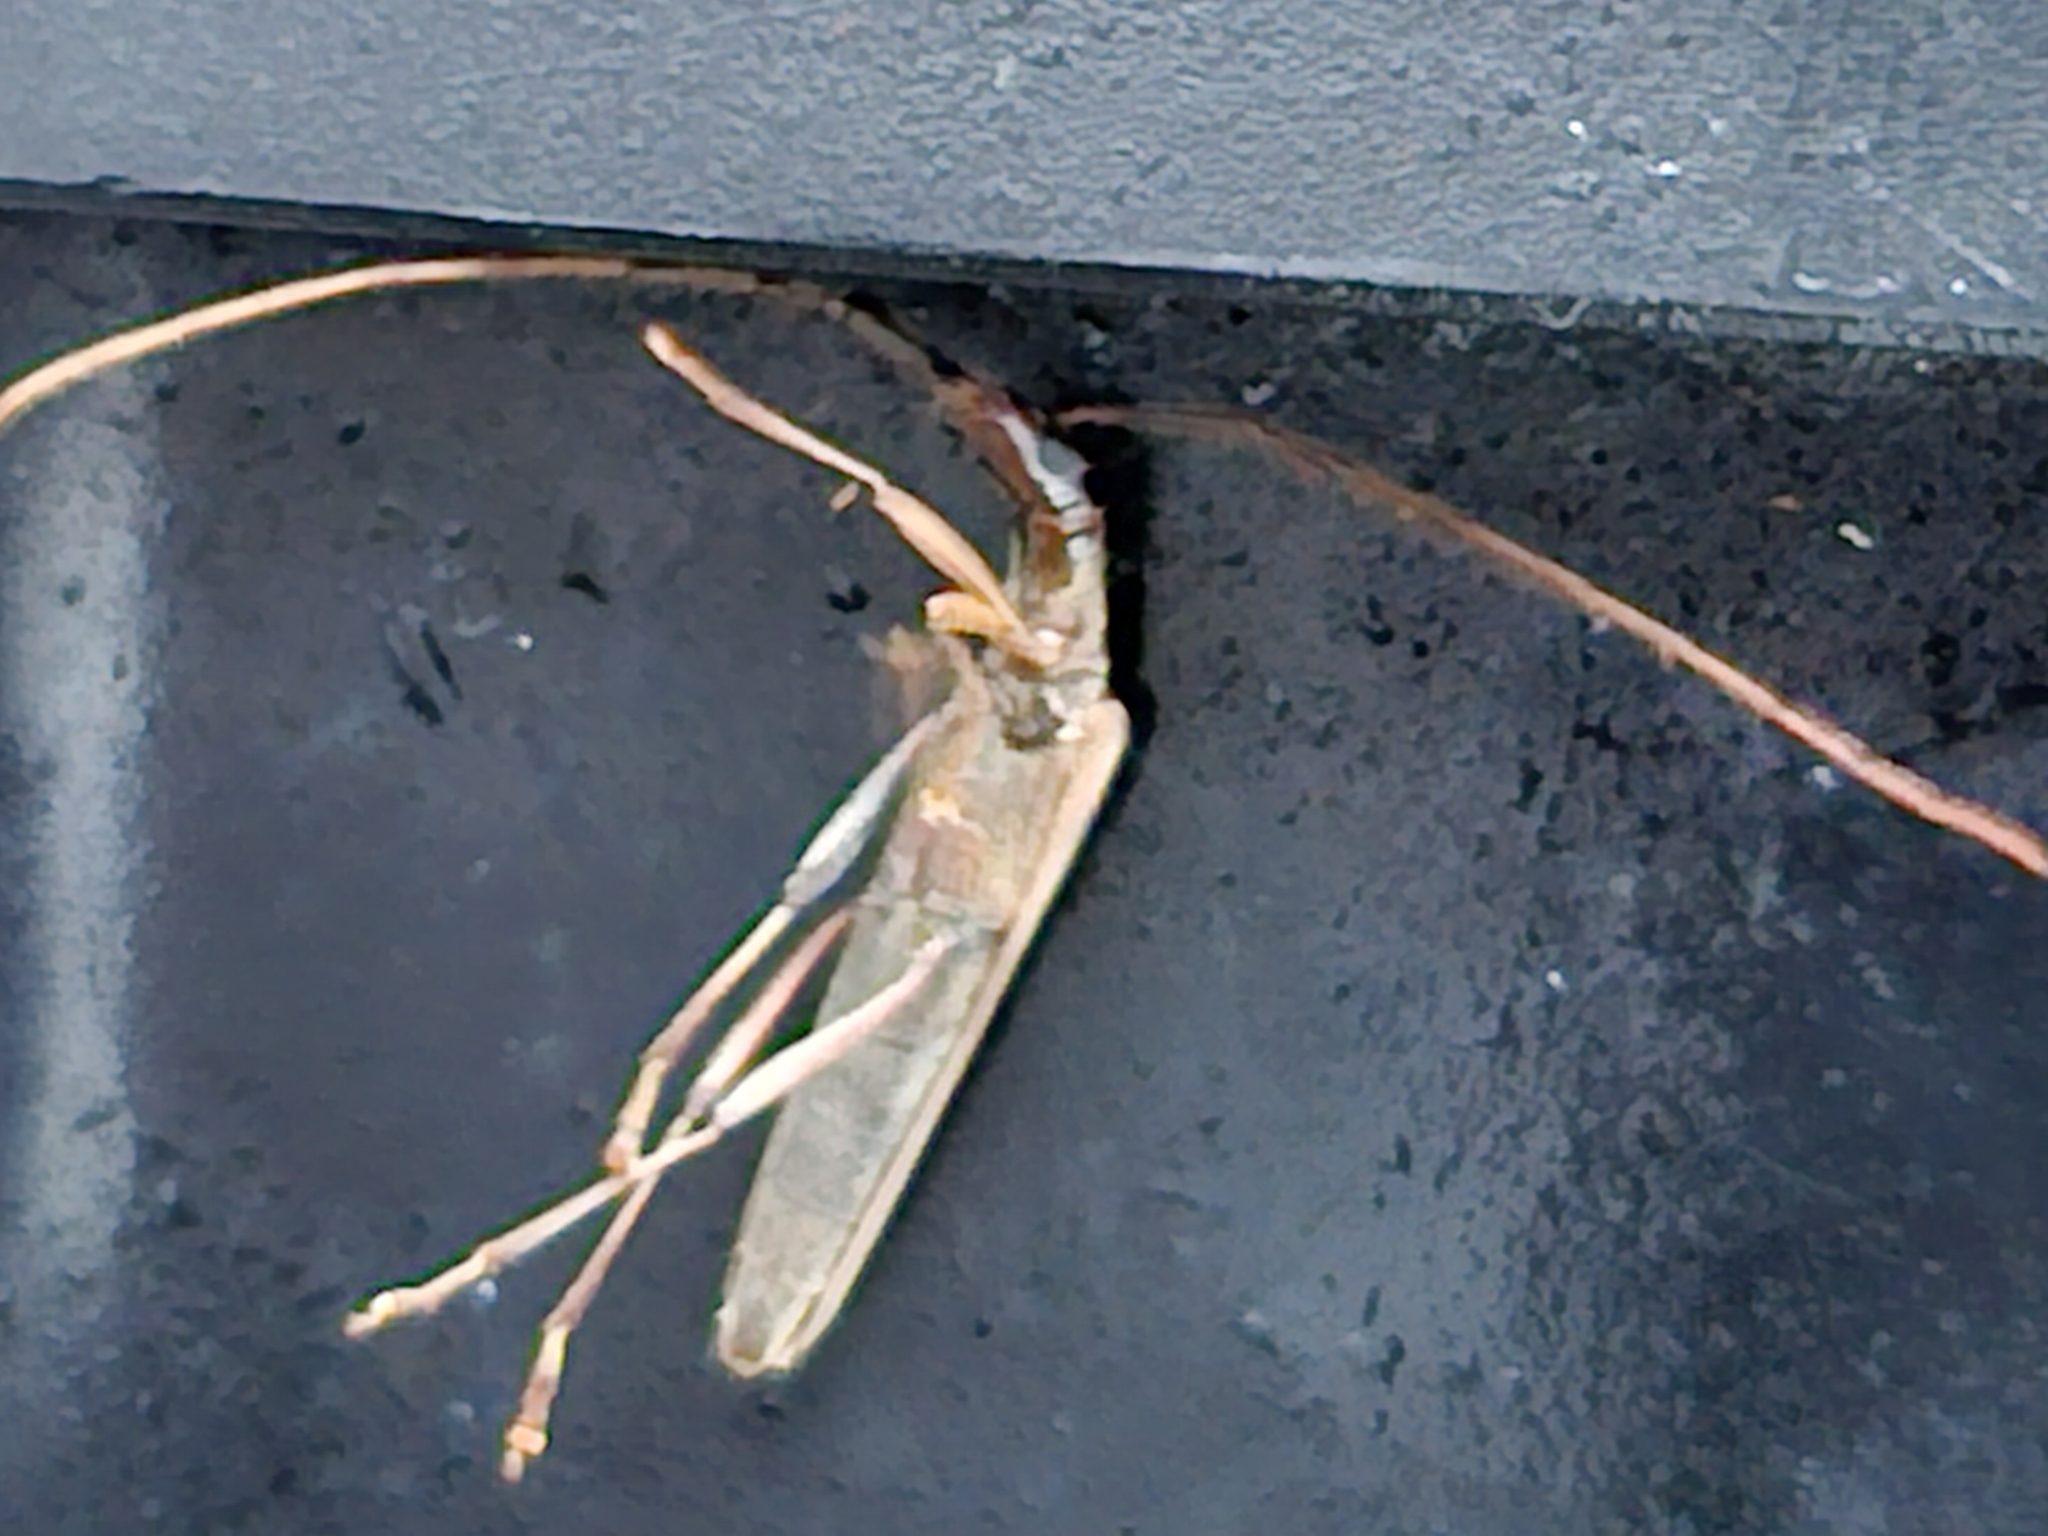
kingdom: Animalia
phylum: Arthropoda
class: Insecta
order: Coleoptera
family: Cerambycidae
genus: Stenopotes
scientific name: Stenopotes pallidus
